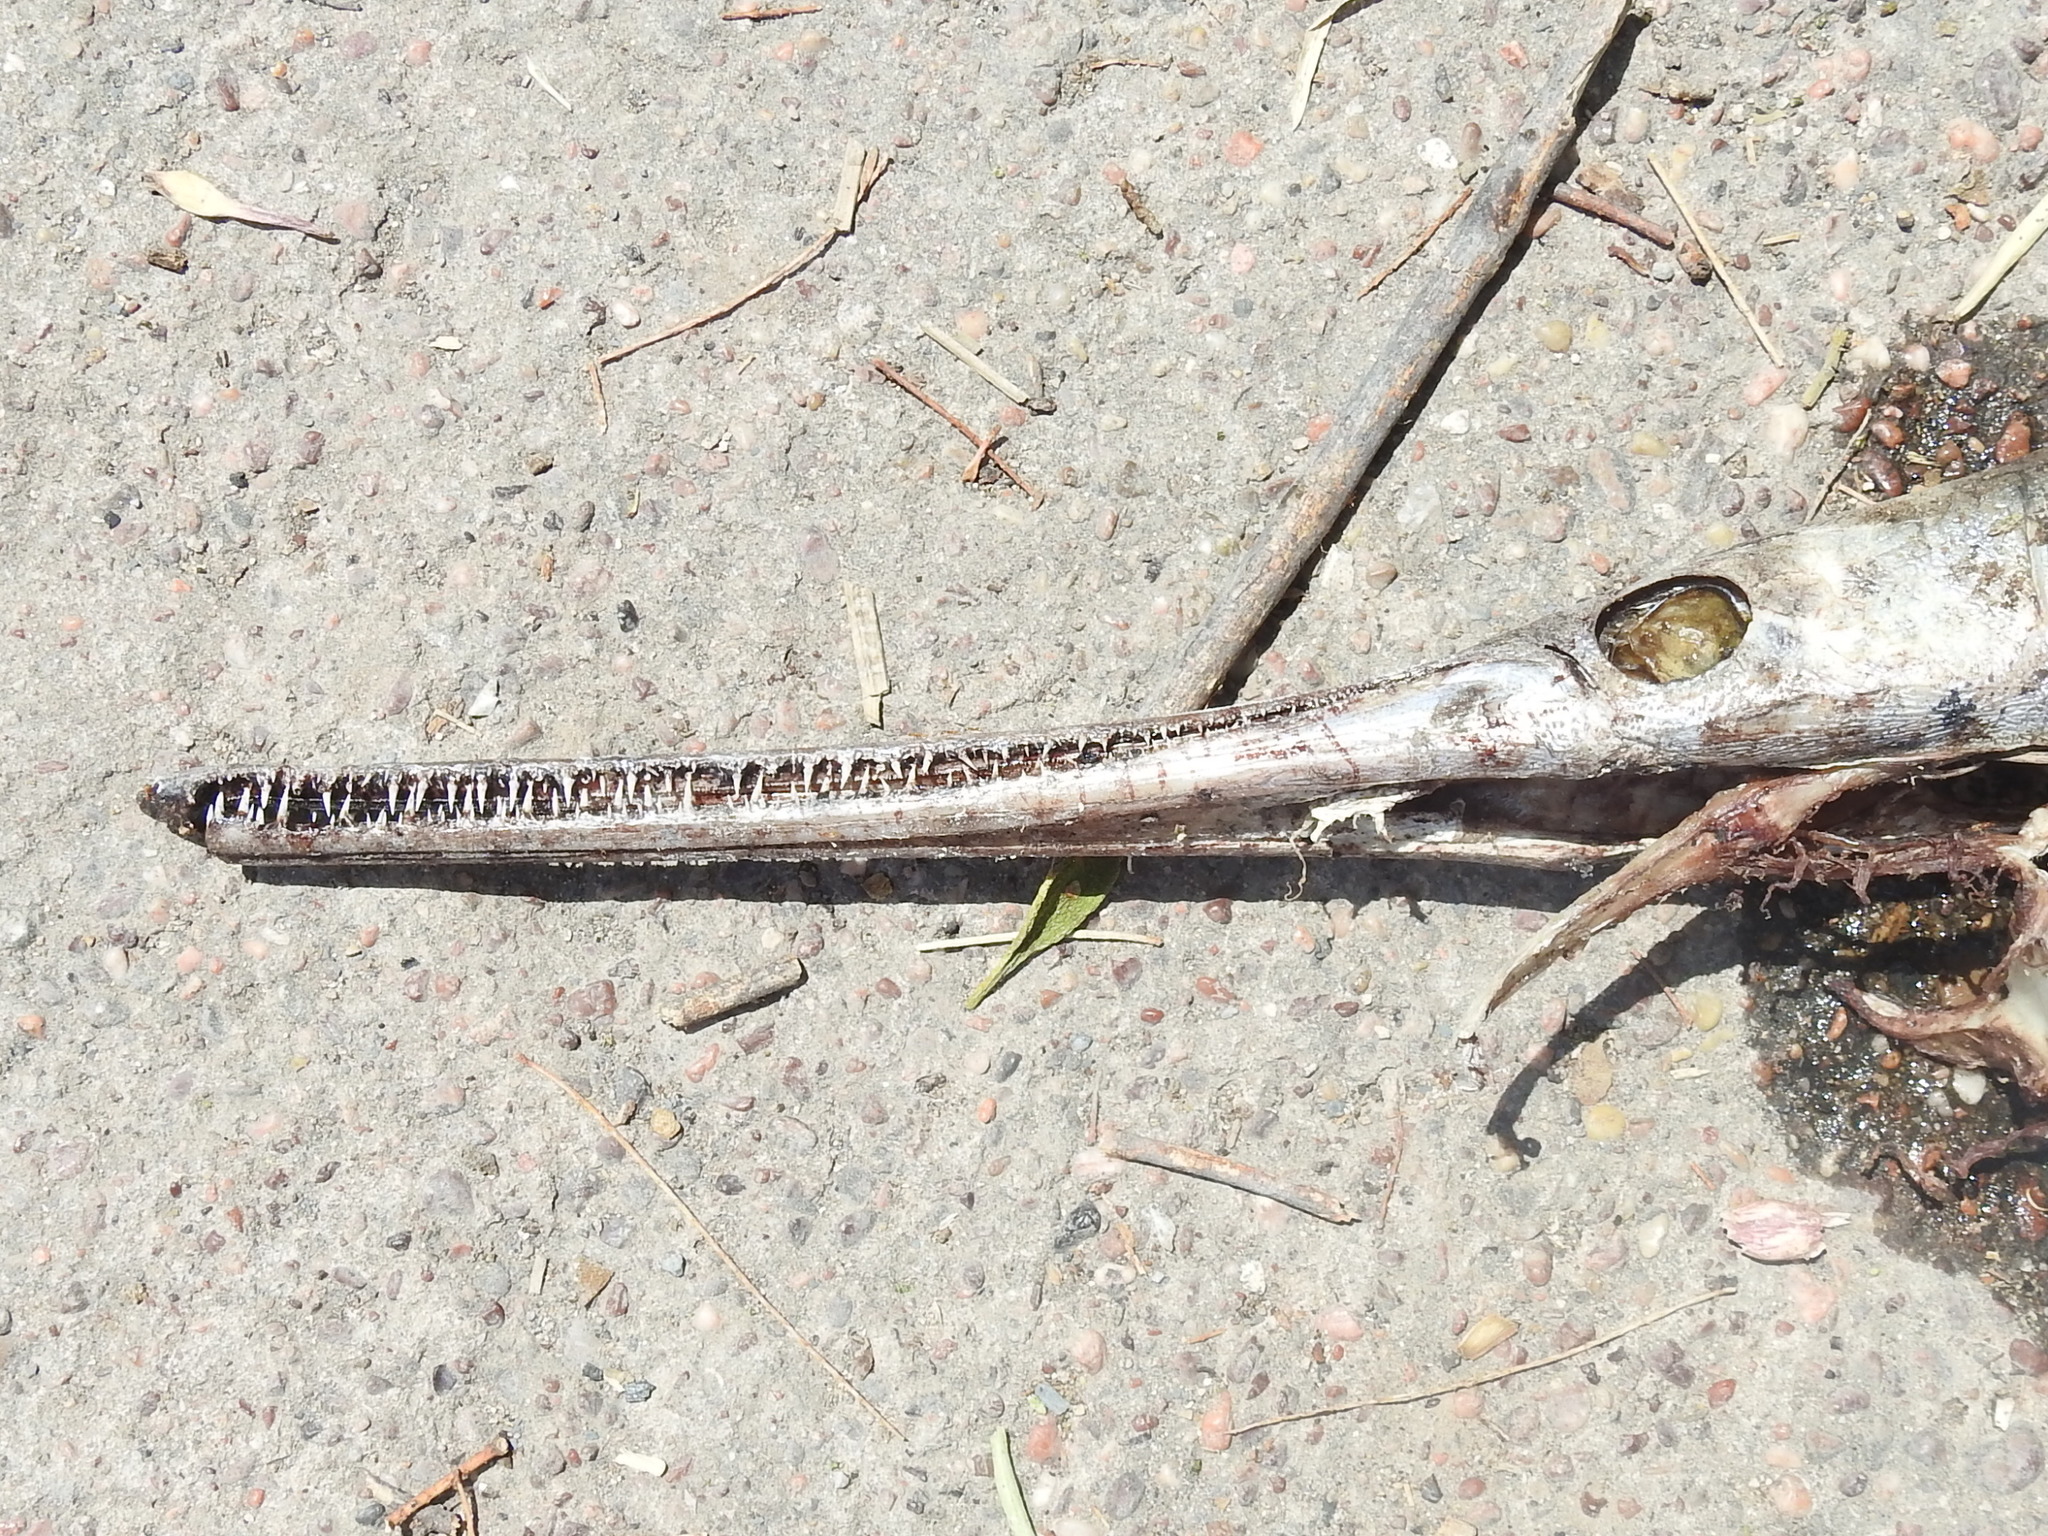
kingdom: Animalia
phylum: Chordata
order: Lepisosteiformes
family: Lepisosteidae
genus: Lepisosteus
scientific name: Lepisosteus osseus
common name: Longnose gar
